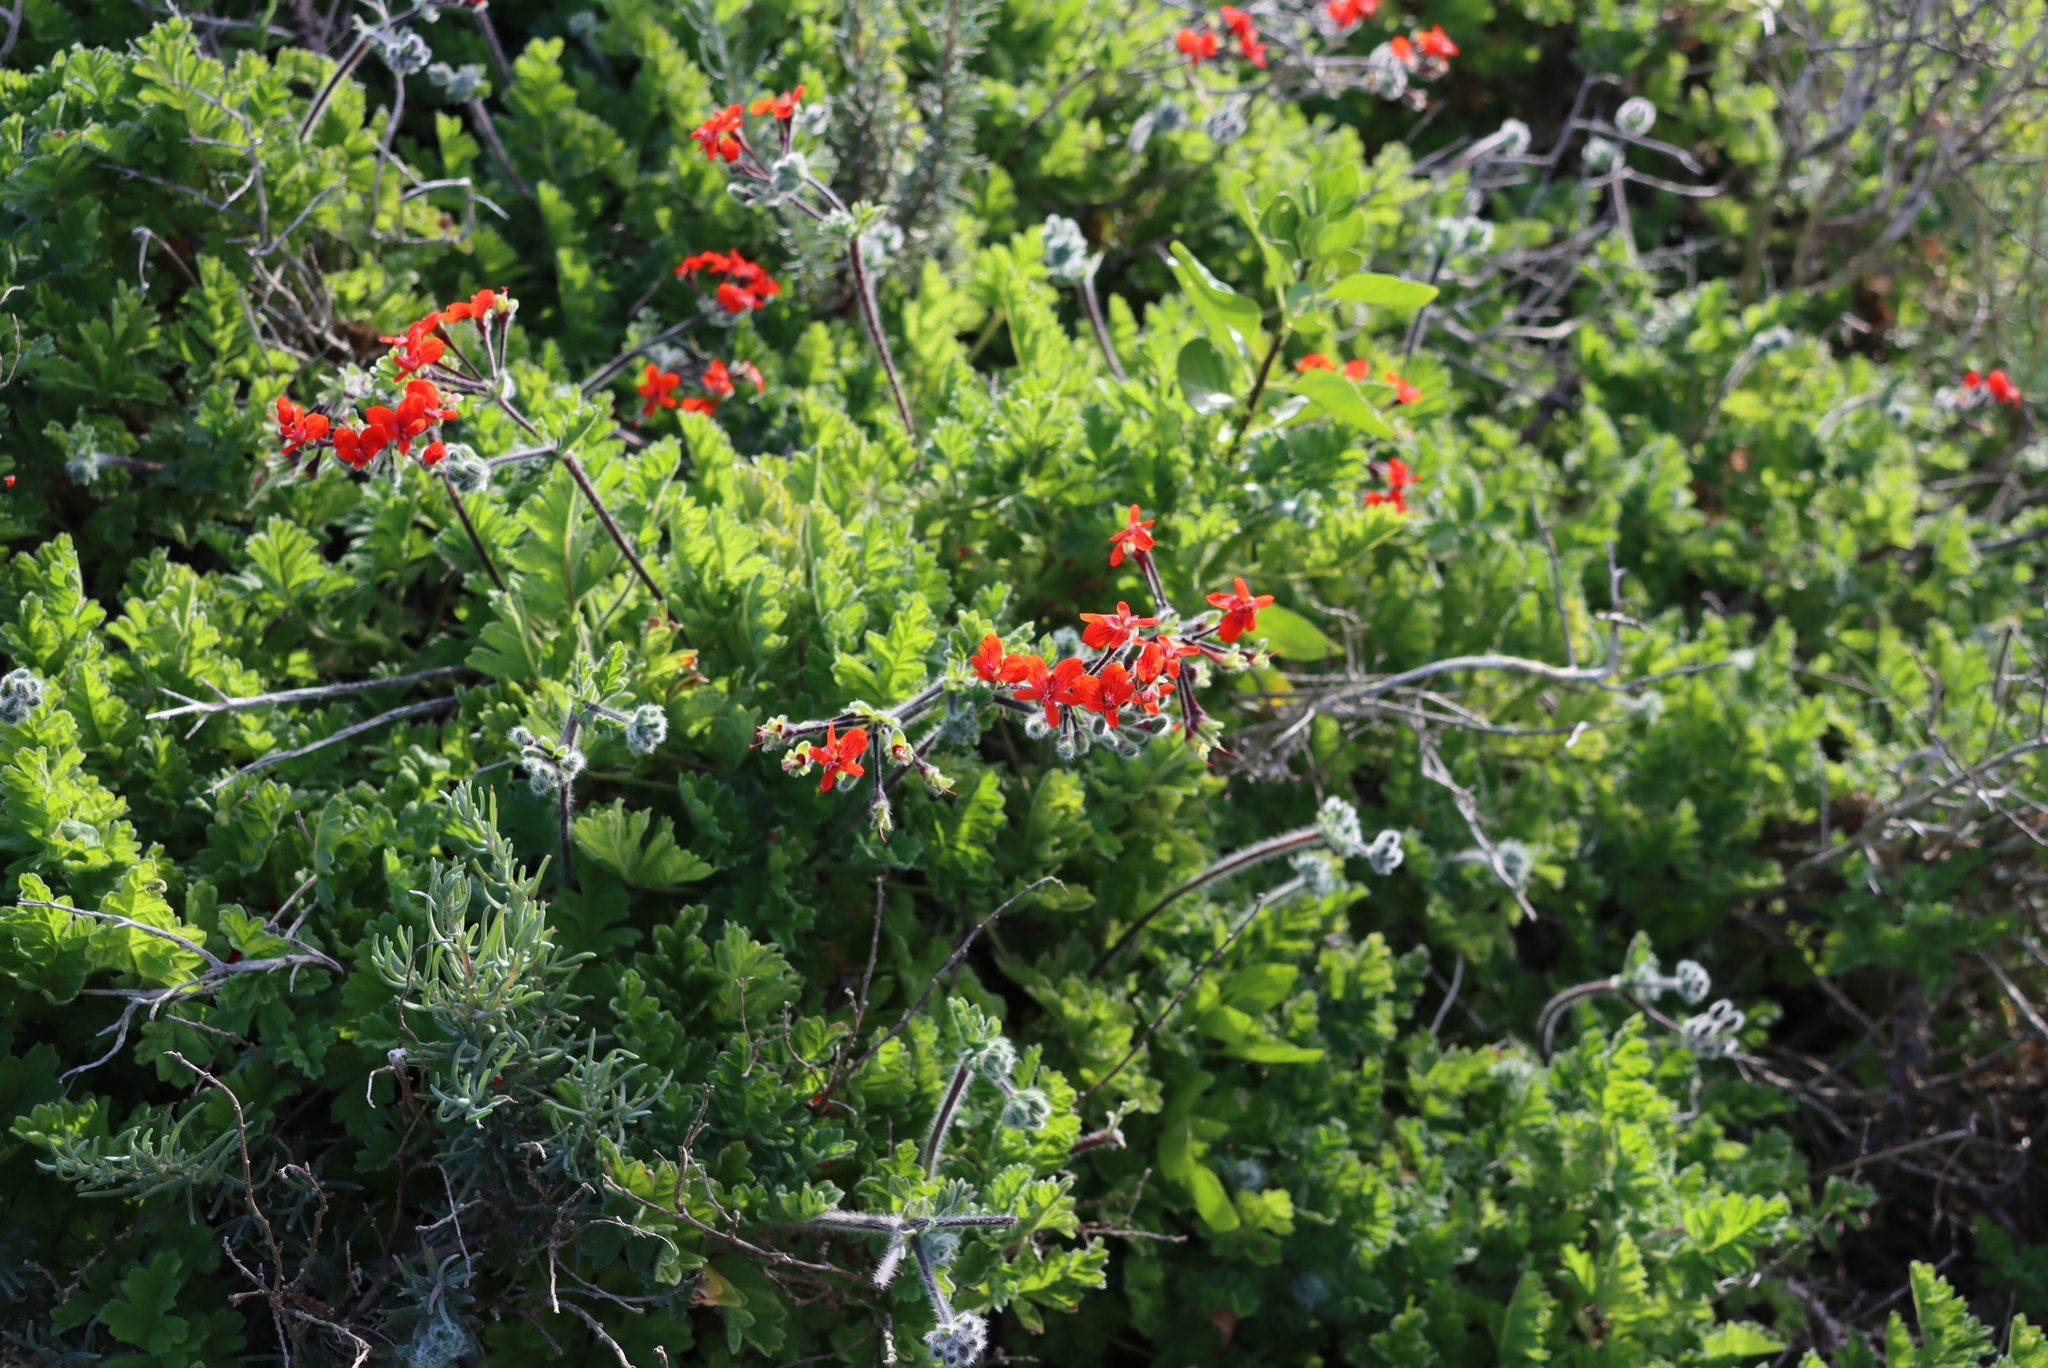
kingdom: Plantae
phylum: Tracheophyta
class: Magnoliopsida
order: Geraniales
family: Geraniaceae
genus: Pelargonium
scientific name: Pelargonium fulgidum
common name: Celandine-leaf pelargonium
